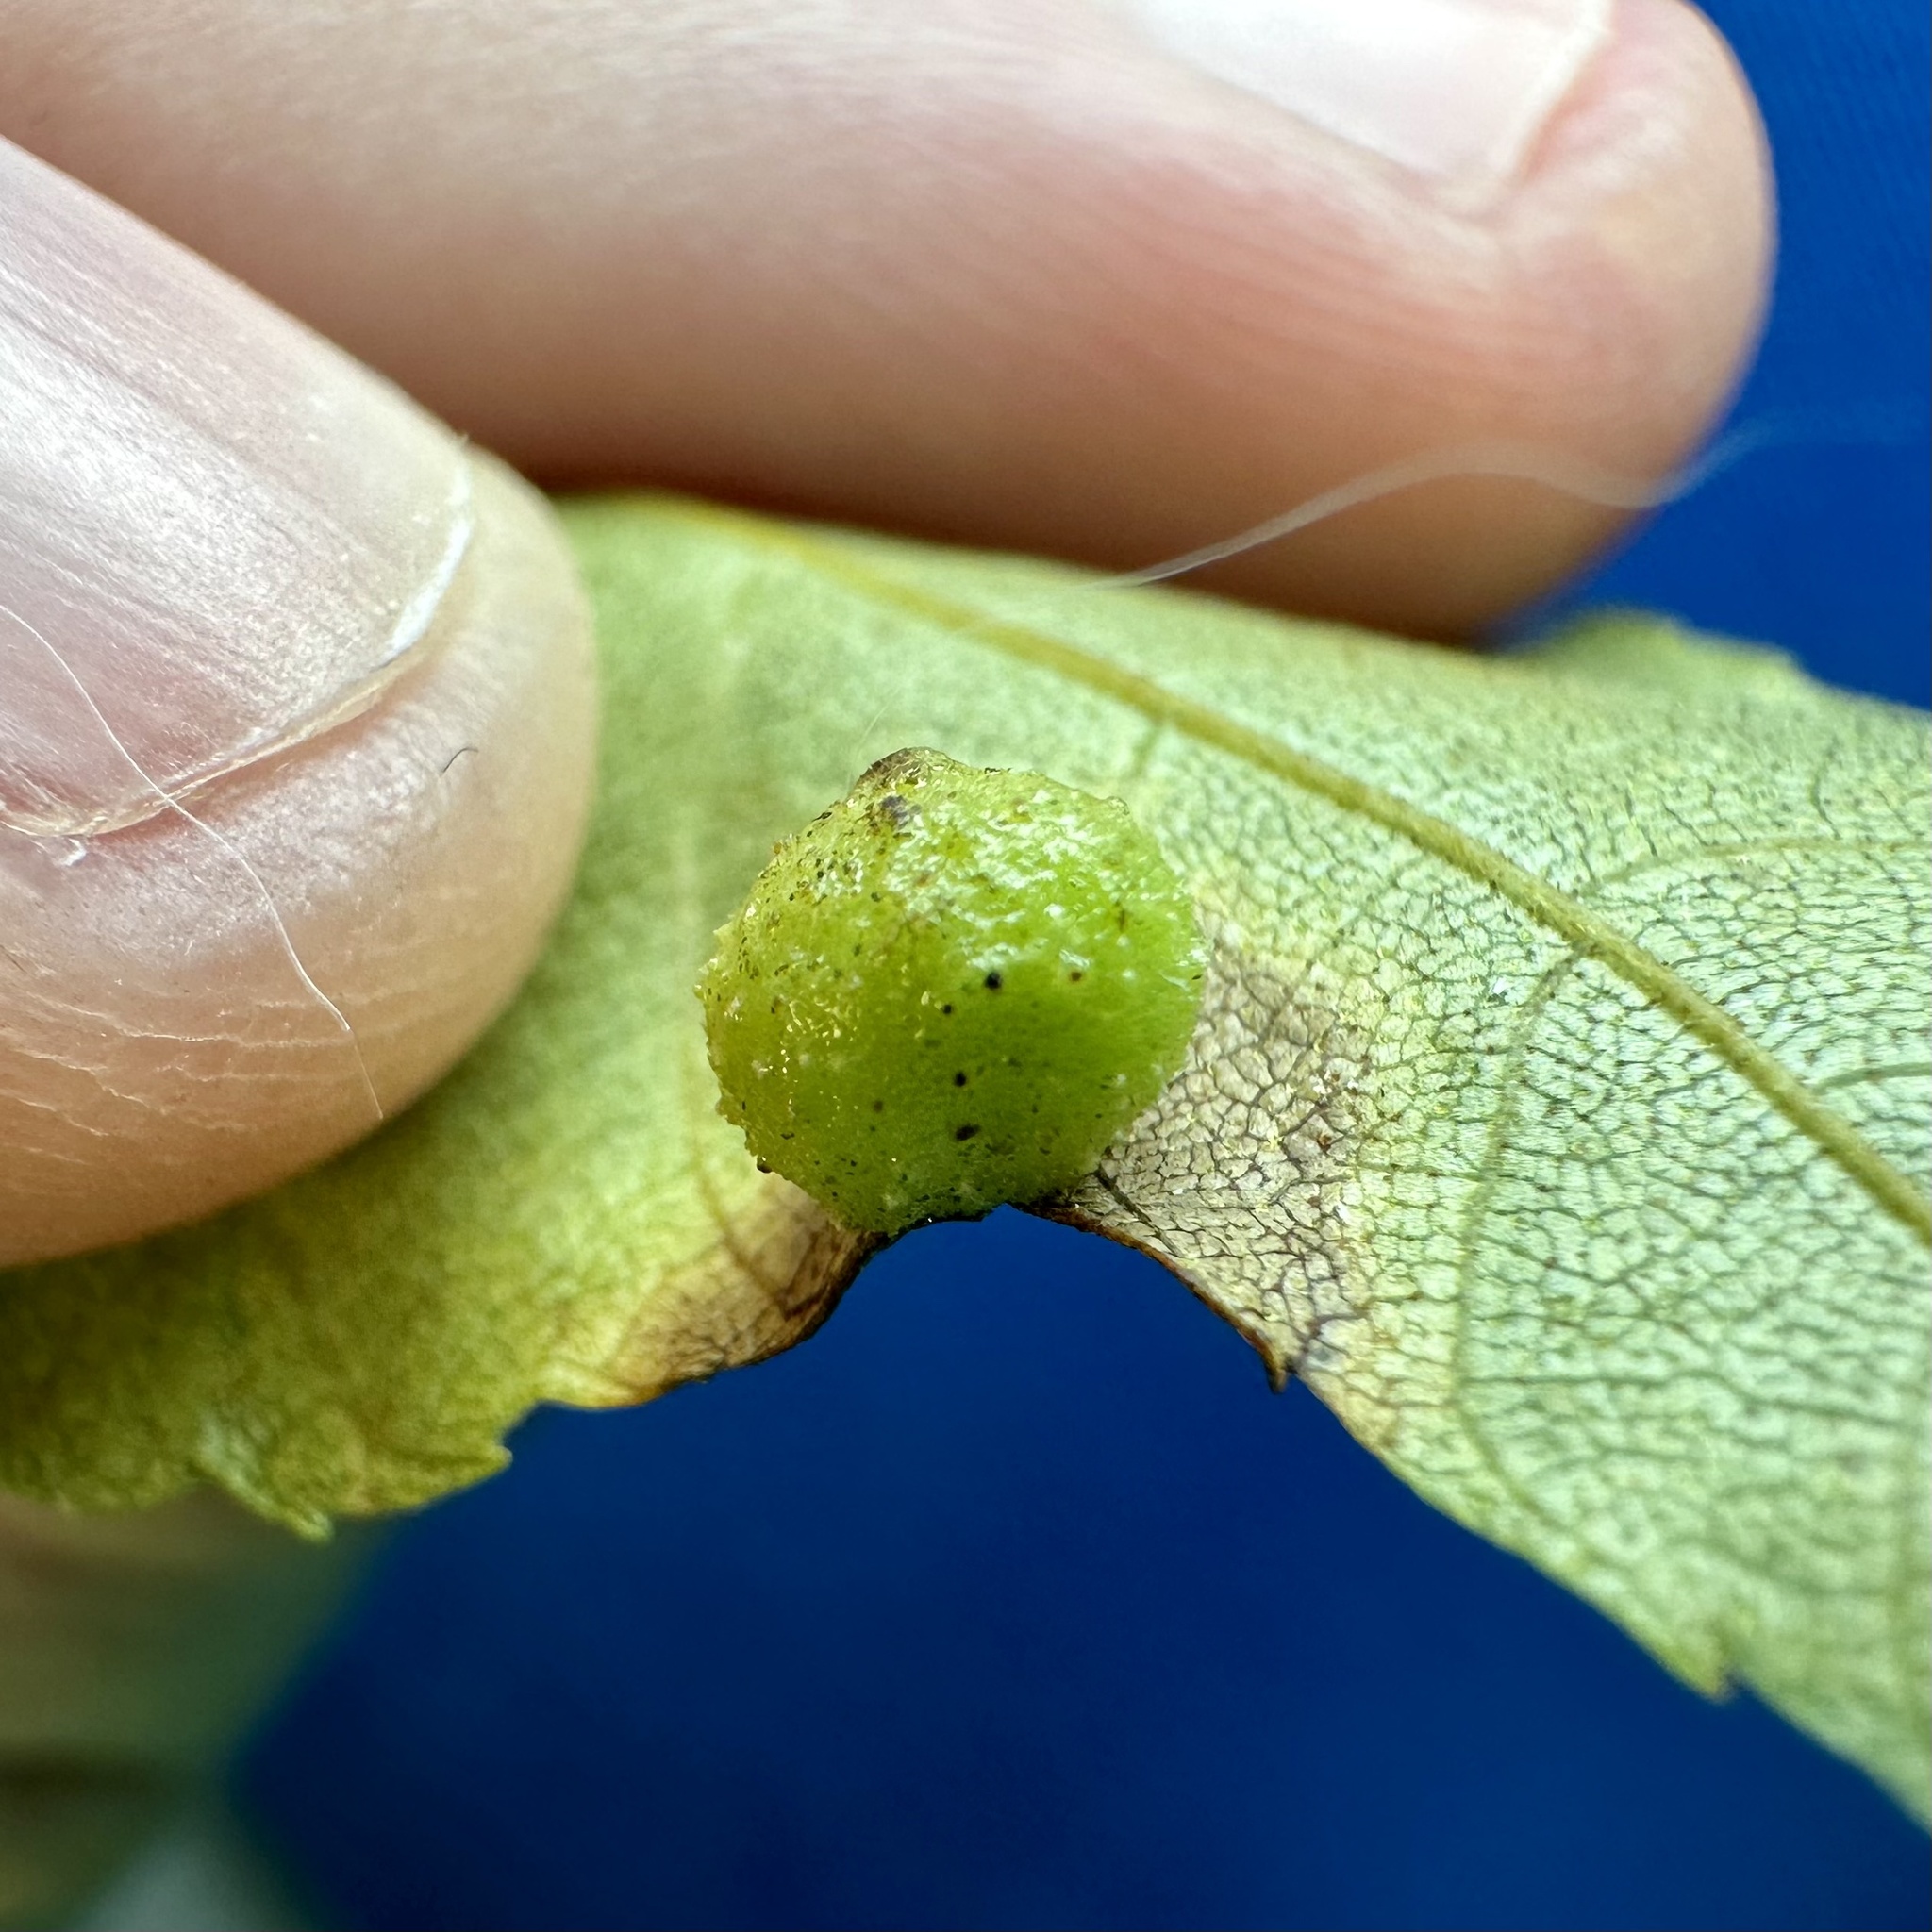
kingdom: Animalia
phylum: Arthropoda
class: Insecta
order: Diptera
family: Cecidomyiidae
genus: Caryomyia
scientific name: Caryomyia tuberculata
